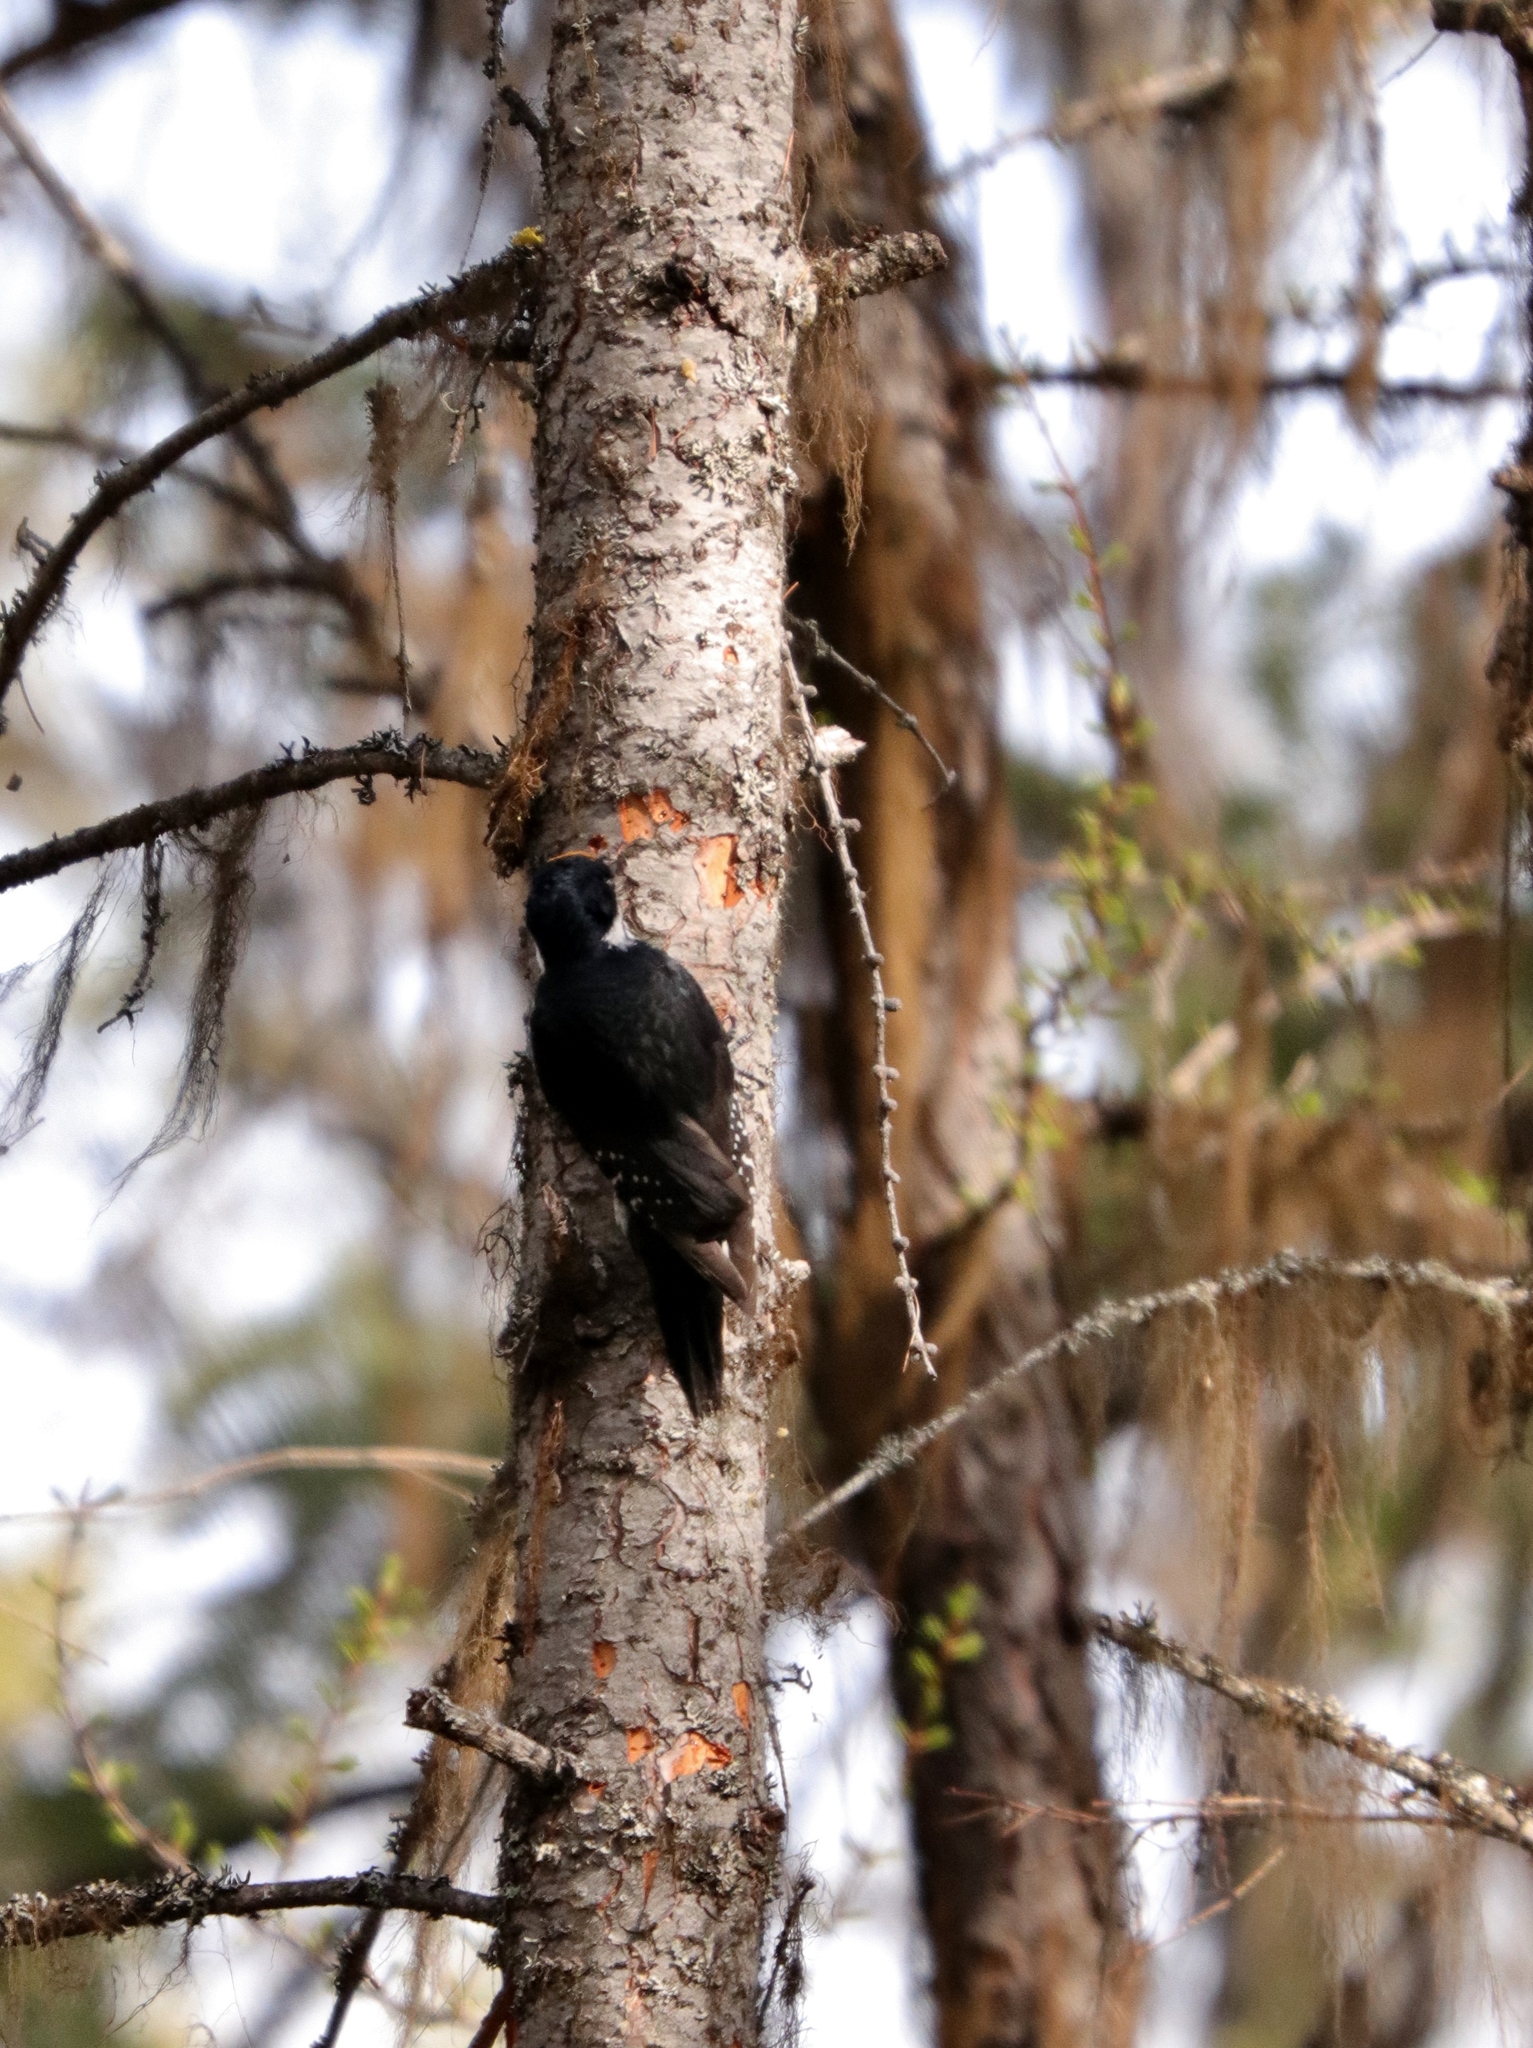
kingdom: Animalia
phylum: Chordata
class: Aves
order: Piciformes
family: Picidae
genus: Picoides
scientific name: Picoides arcticus
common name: Black-backed woodpecker
